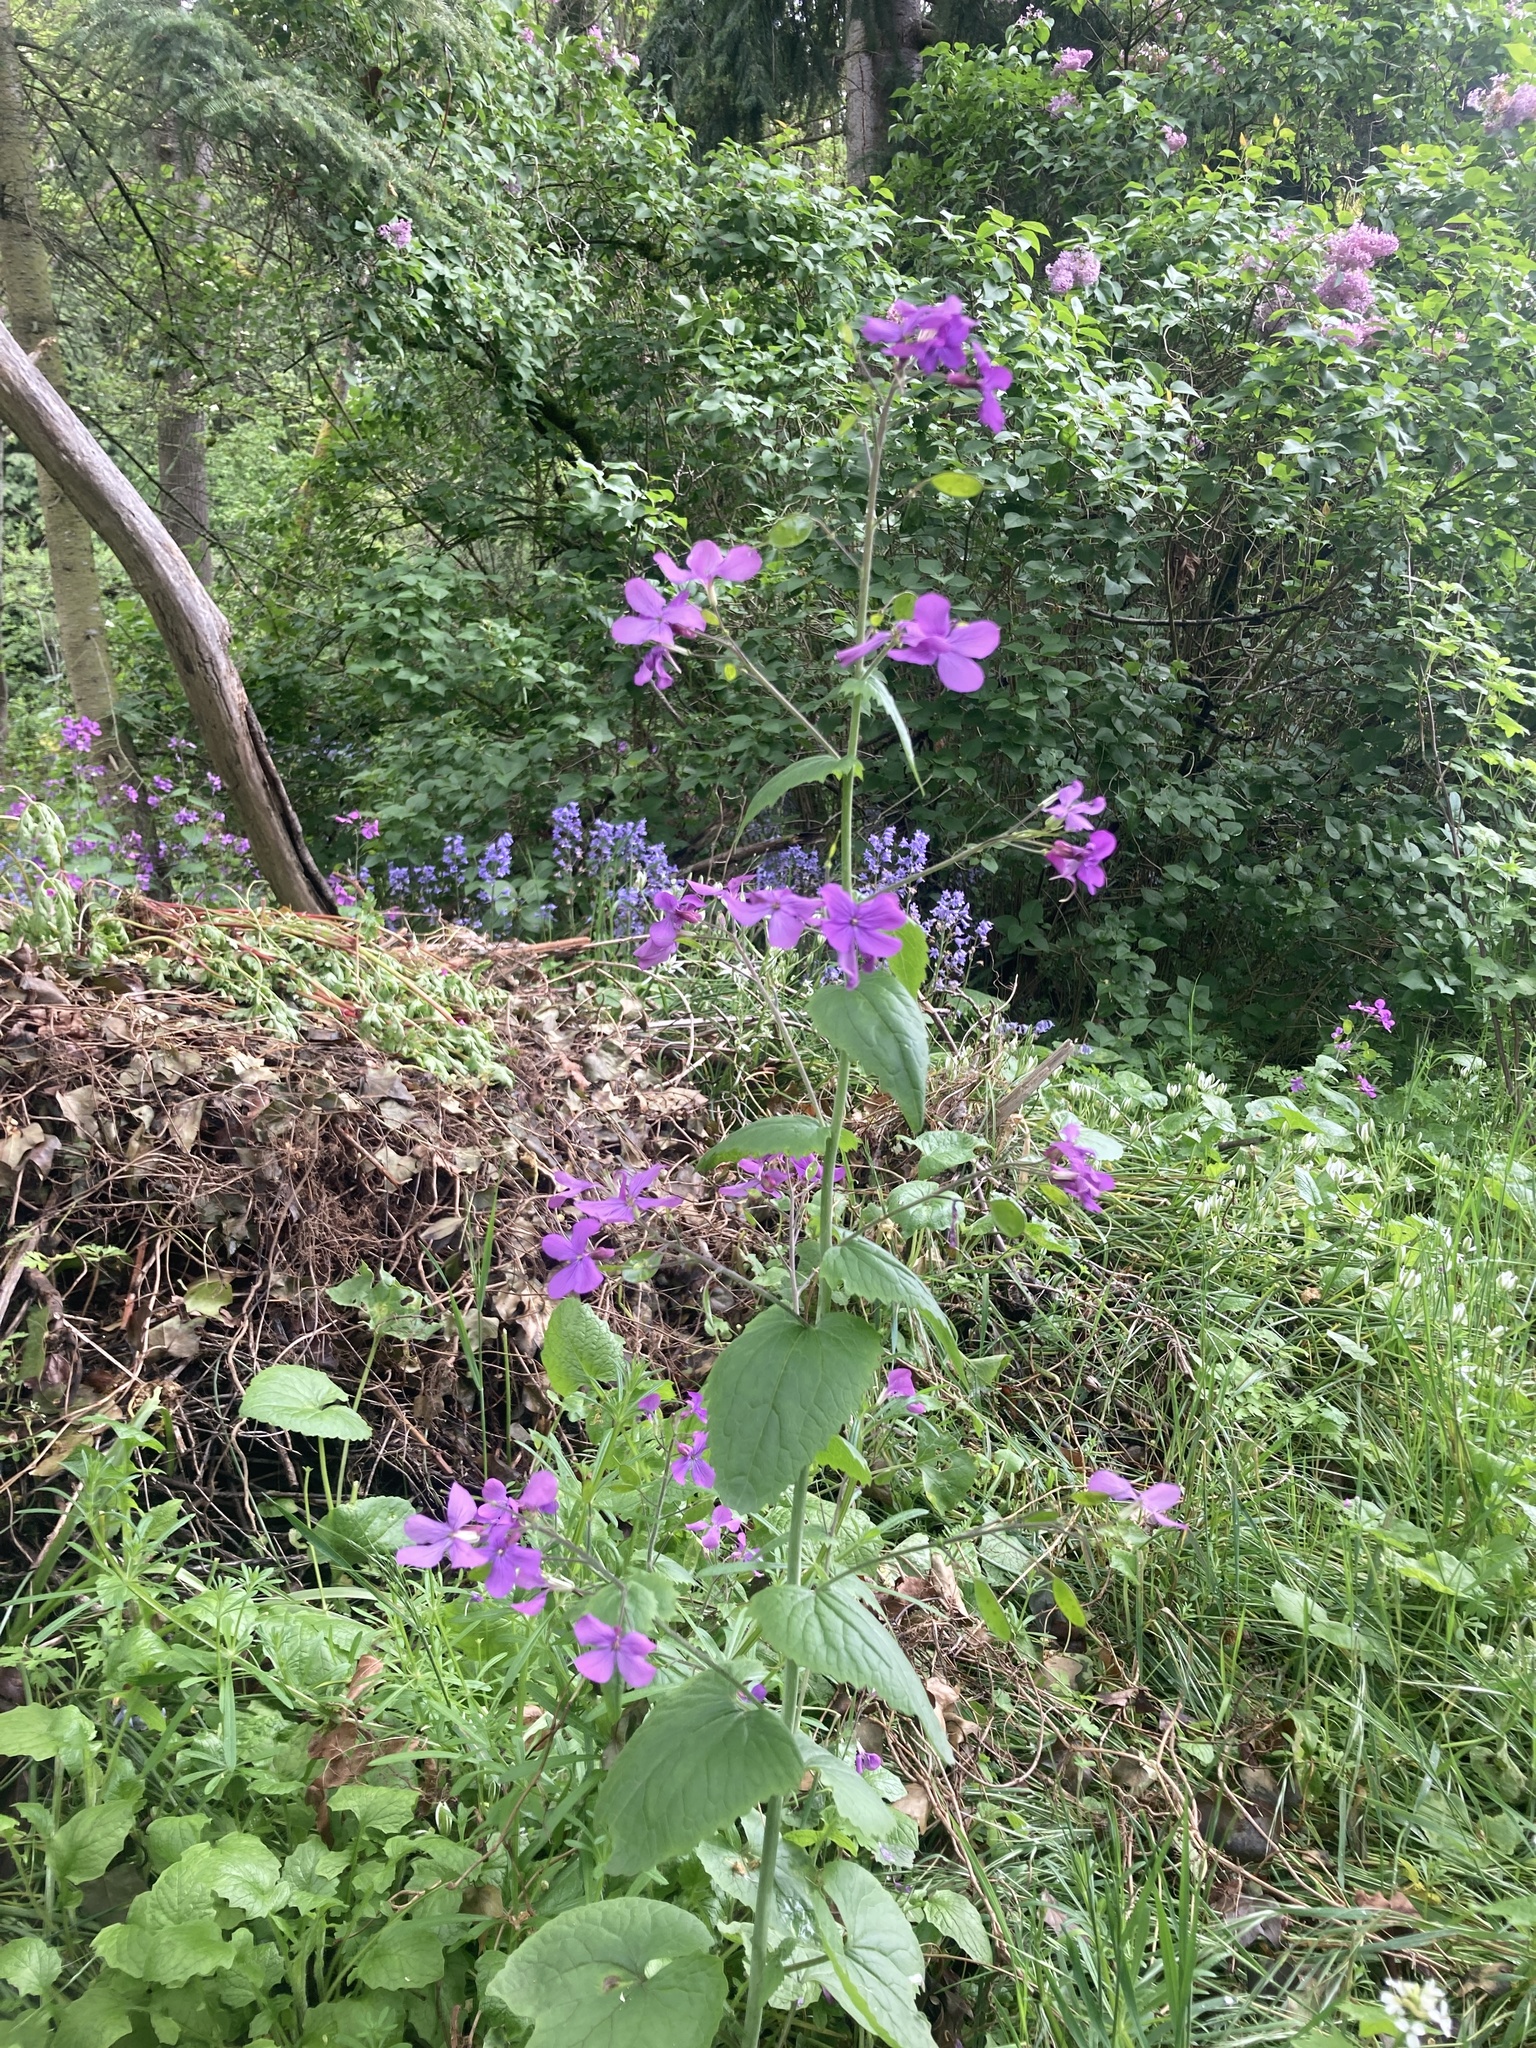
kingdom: Plantae
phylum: Tracheophyta
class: Magnoliopsida
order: Brassicales
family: Brassicaceae
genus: Lunaria
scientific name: Lunaria annua
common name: Honesty
